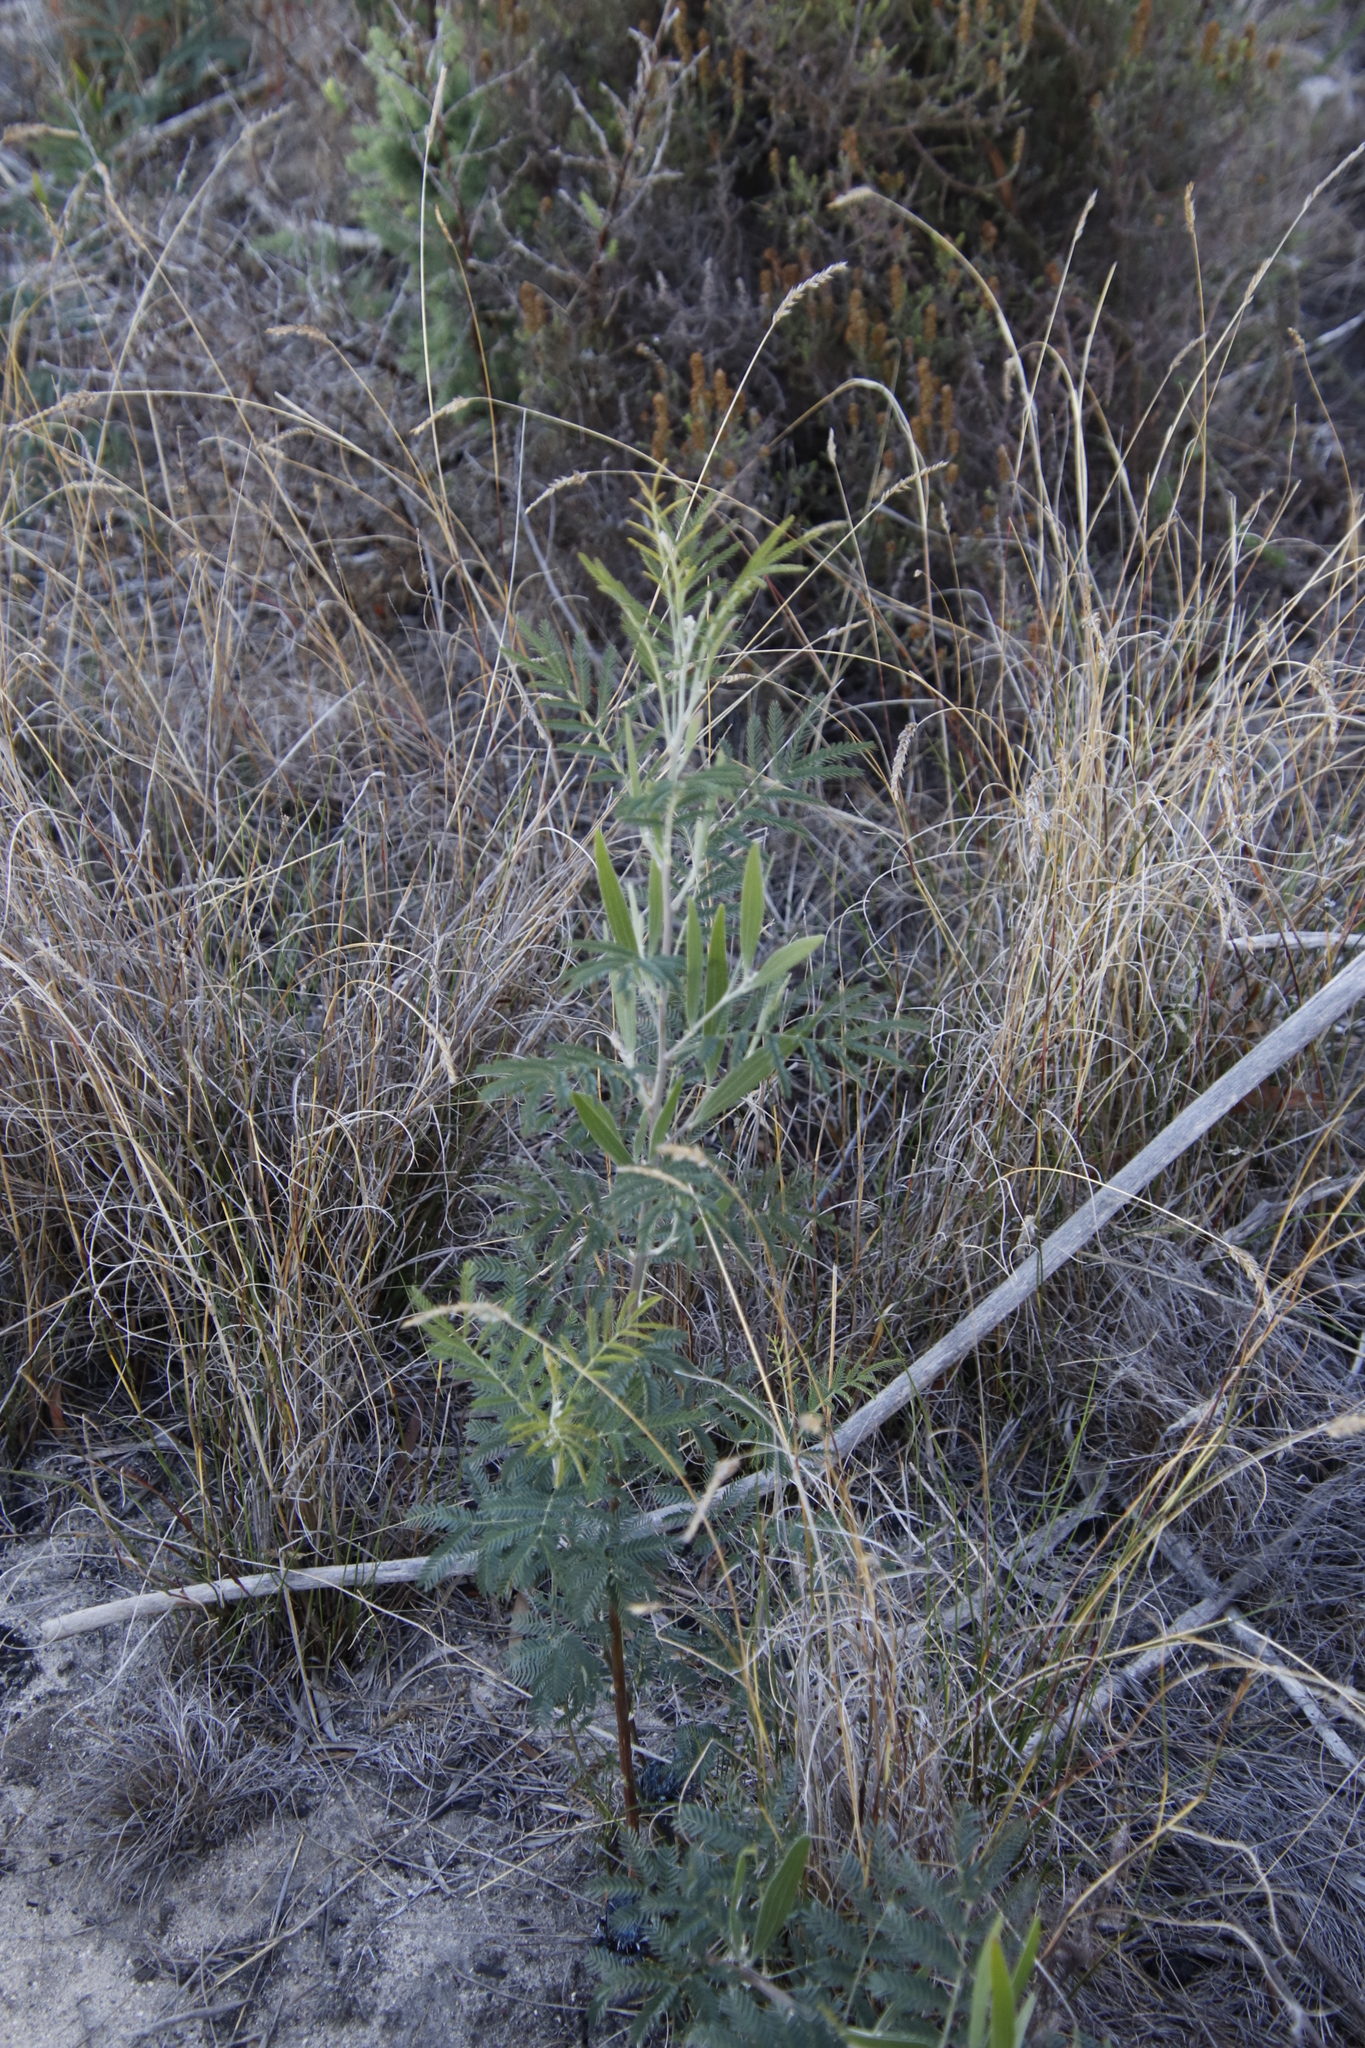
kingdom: Plantae
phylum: Tracheophyta
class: Magnoliopsida
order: Fabales
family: Fabaceae
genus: Acacia
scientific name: Acacia melanoxylon
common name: Blackwood
